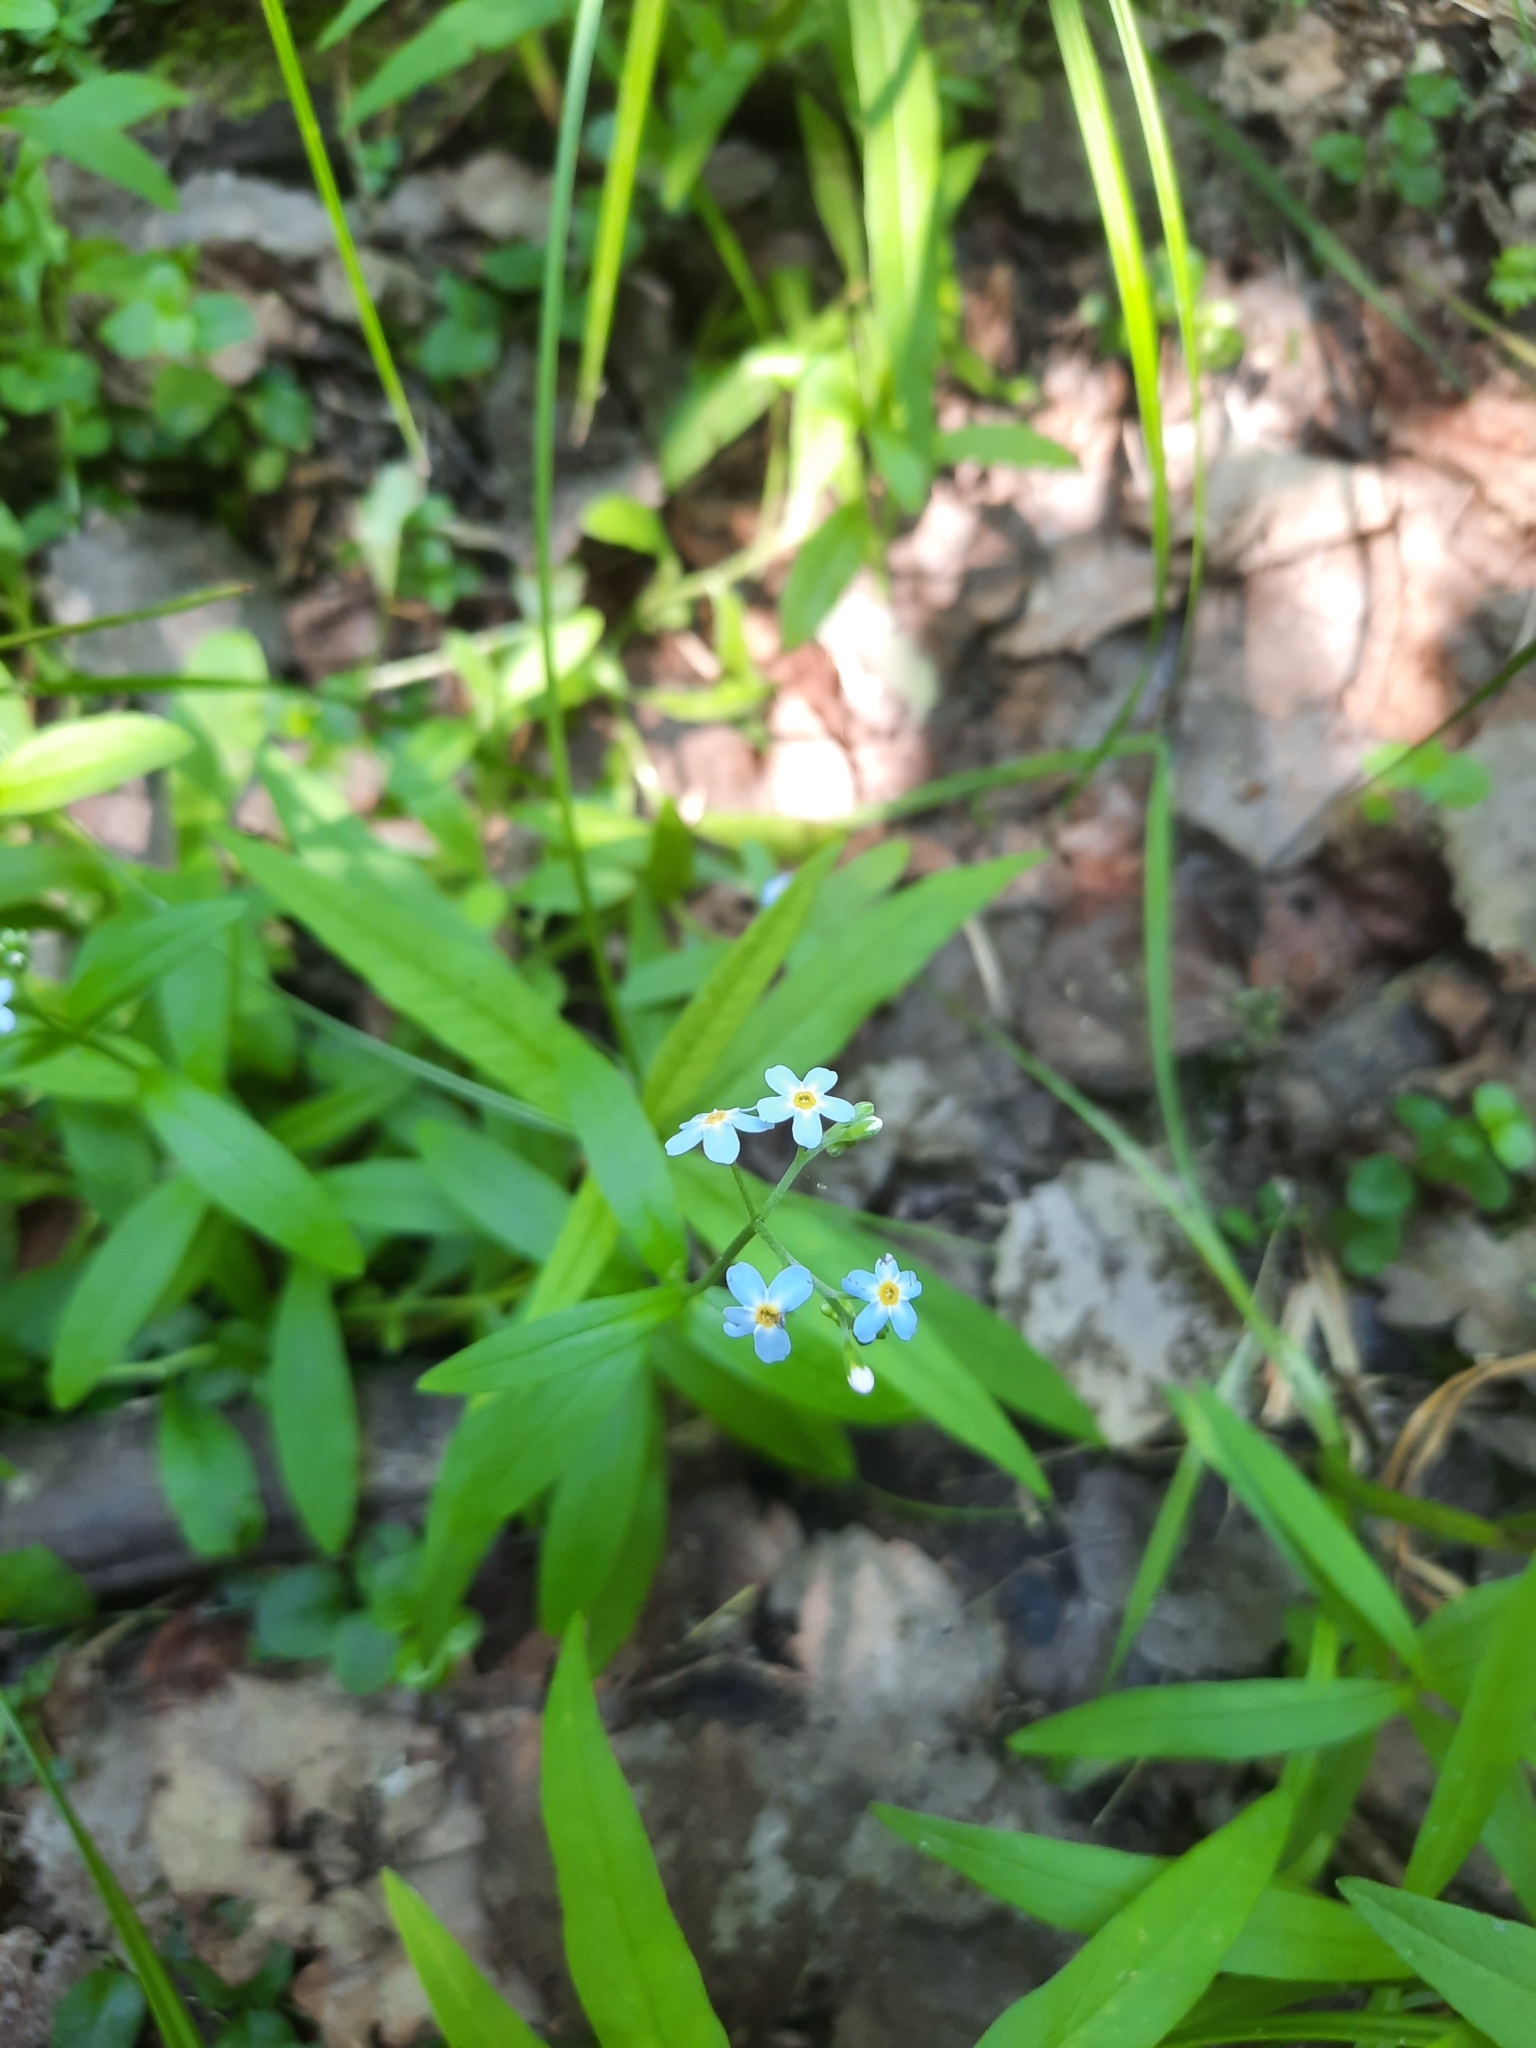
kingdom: Plantae
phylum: Tracheophyta
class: Magnoliopsida
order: Boraginales
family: Boraginaceae
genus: Myosotis
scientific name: Myosotis scorpioides
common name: Water forget-me-not
